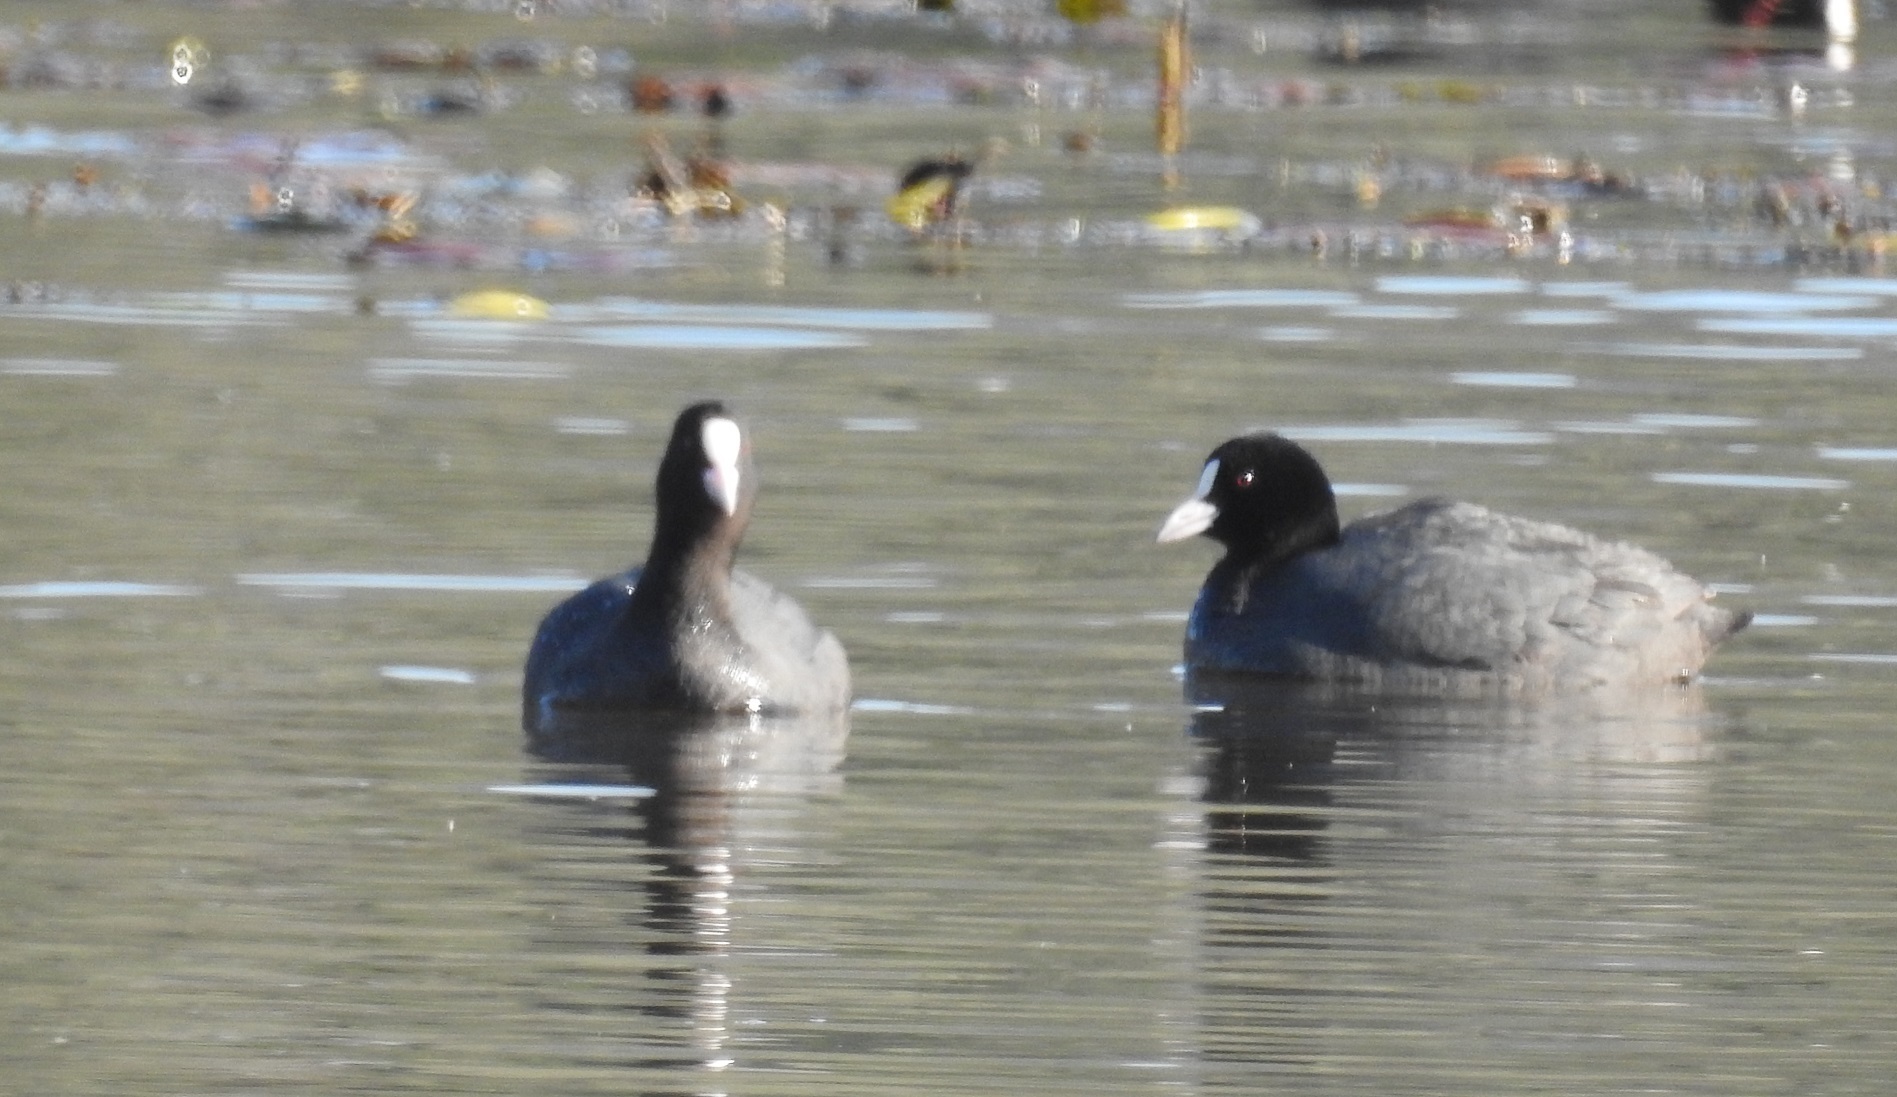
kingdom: Animalia
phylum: Chordata
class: Aves
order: Gruiformes
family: Rallidae
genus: Fulica
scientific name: Fulica atra
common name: Eurasian coot
